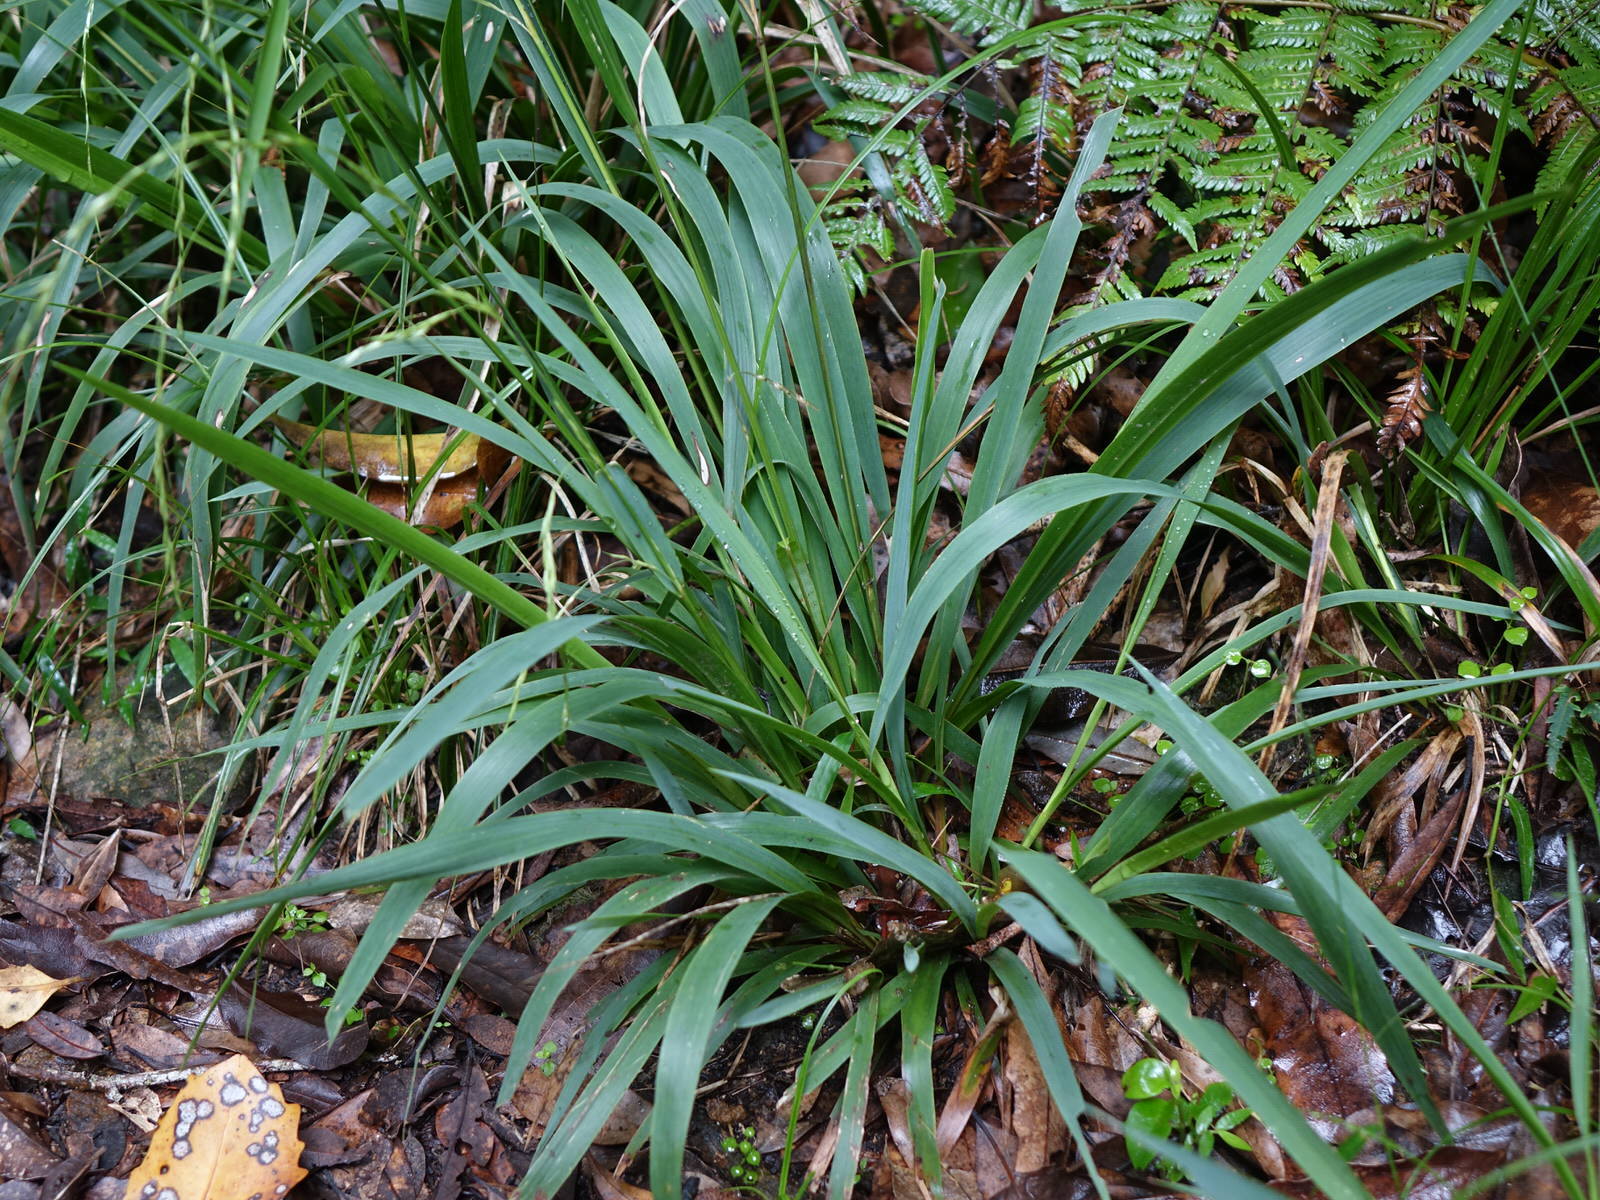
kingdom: Plantae
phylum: Tracheophyta
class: Liliopsida
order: Poales
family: Poaceae
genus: Ehrharta
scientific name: Ehrharta diplax
